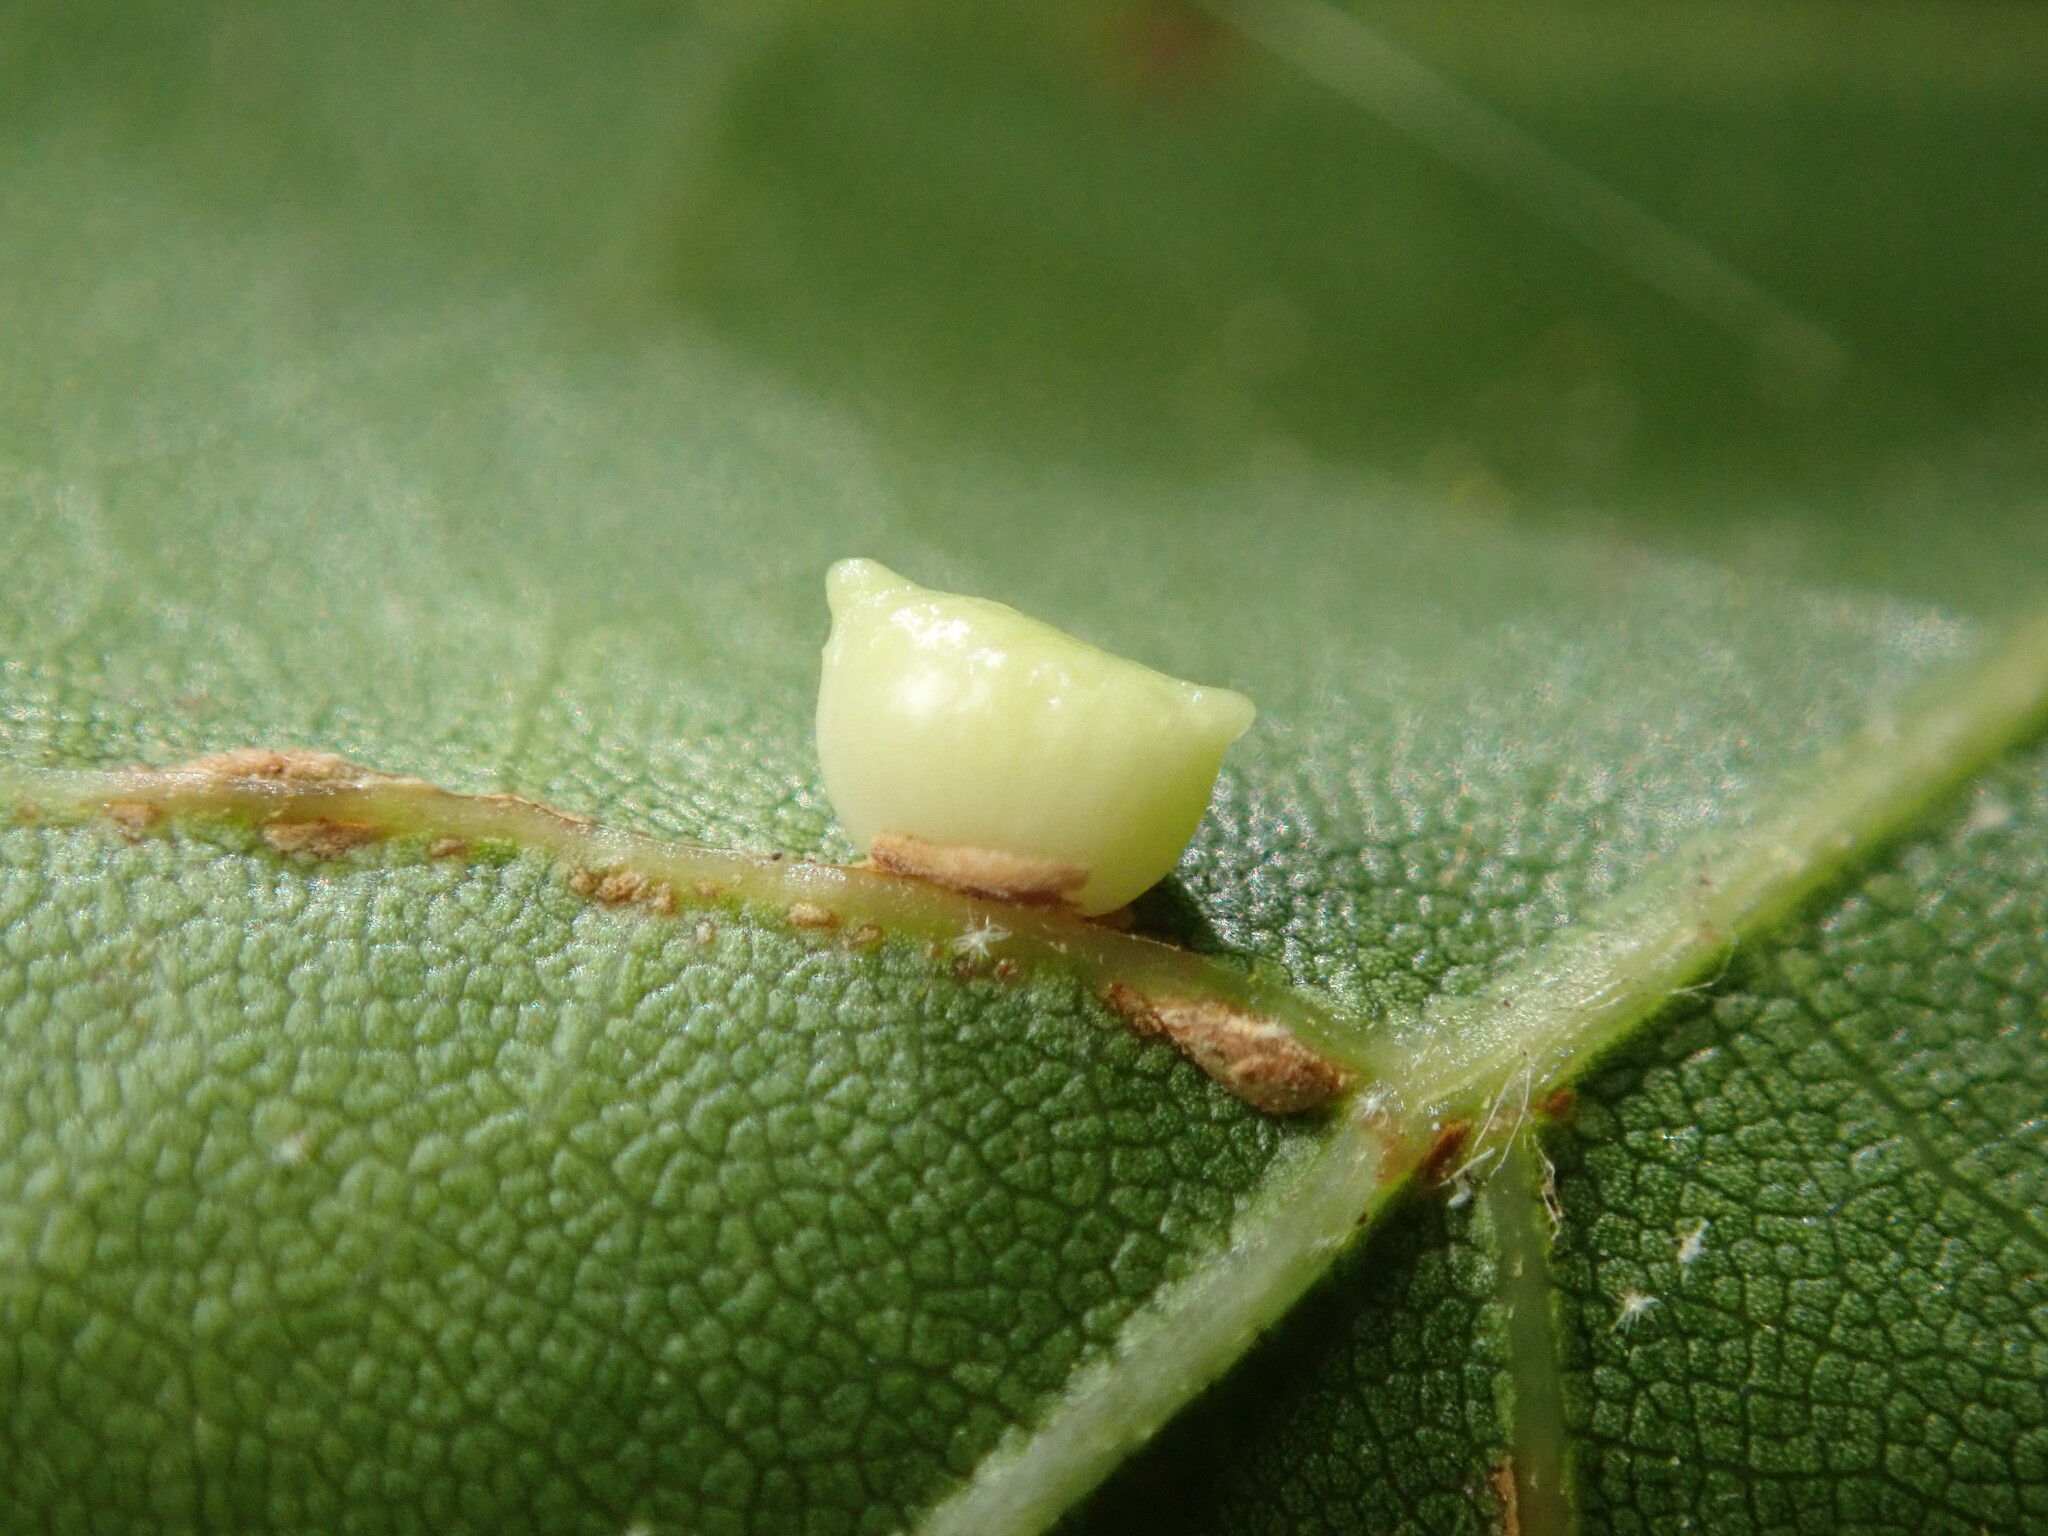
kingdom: Animalia
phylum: Arthropoda
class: Insecta
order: Hymenoptera
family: Cynipidae
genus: Dryocosmus
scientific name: Dryocosmus
